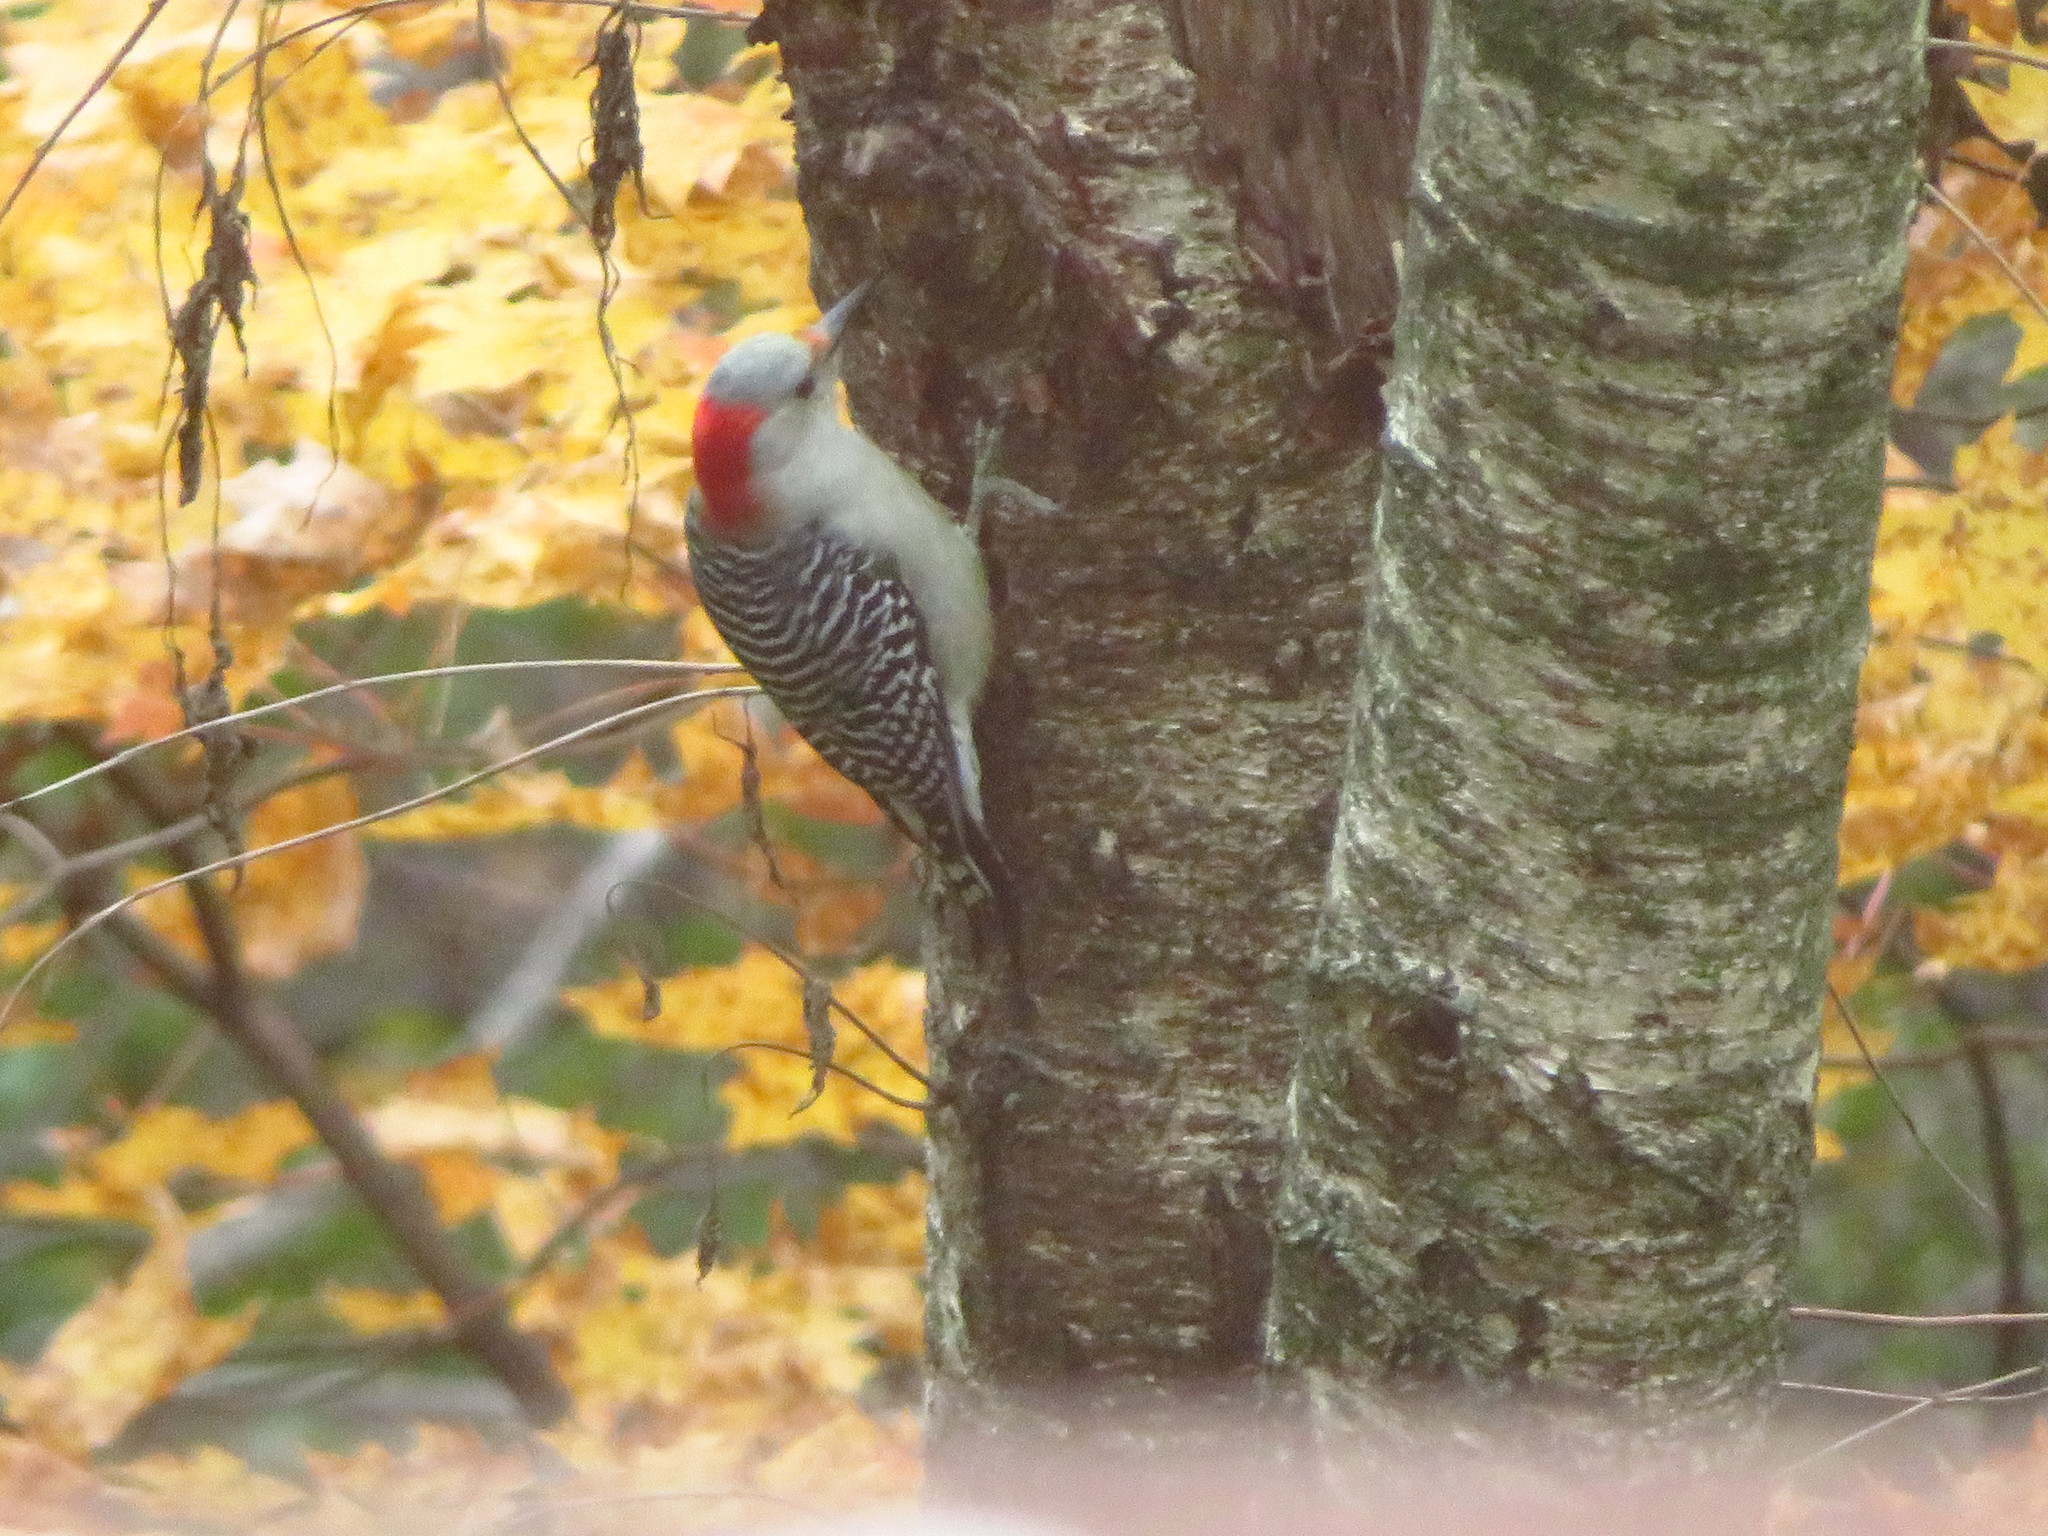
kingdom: Animalia
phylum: Chordata
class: Aves
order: Piciformes
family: Picidae
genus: Melanerpes
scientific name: Melanerpes carolinus
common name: Red-bellied woodpecker
